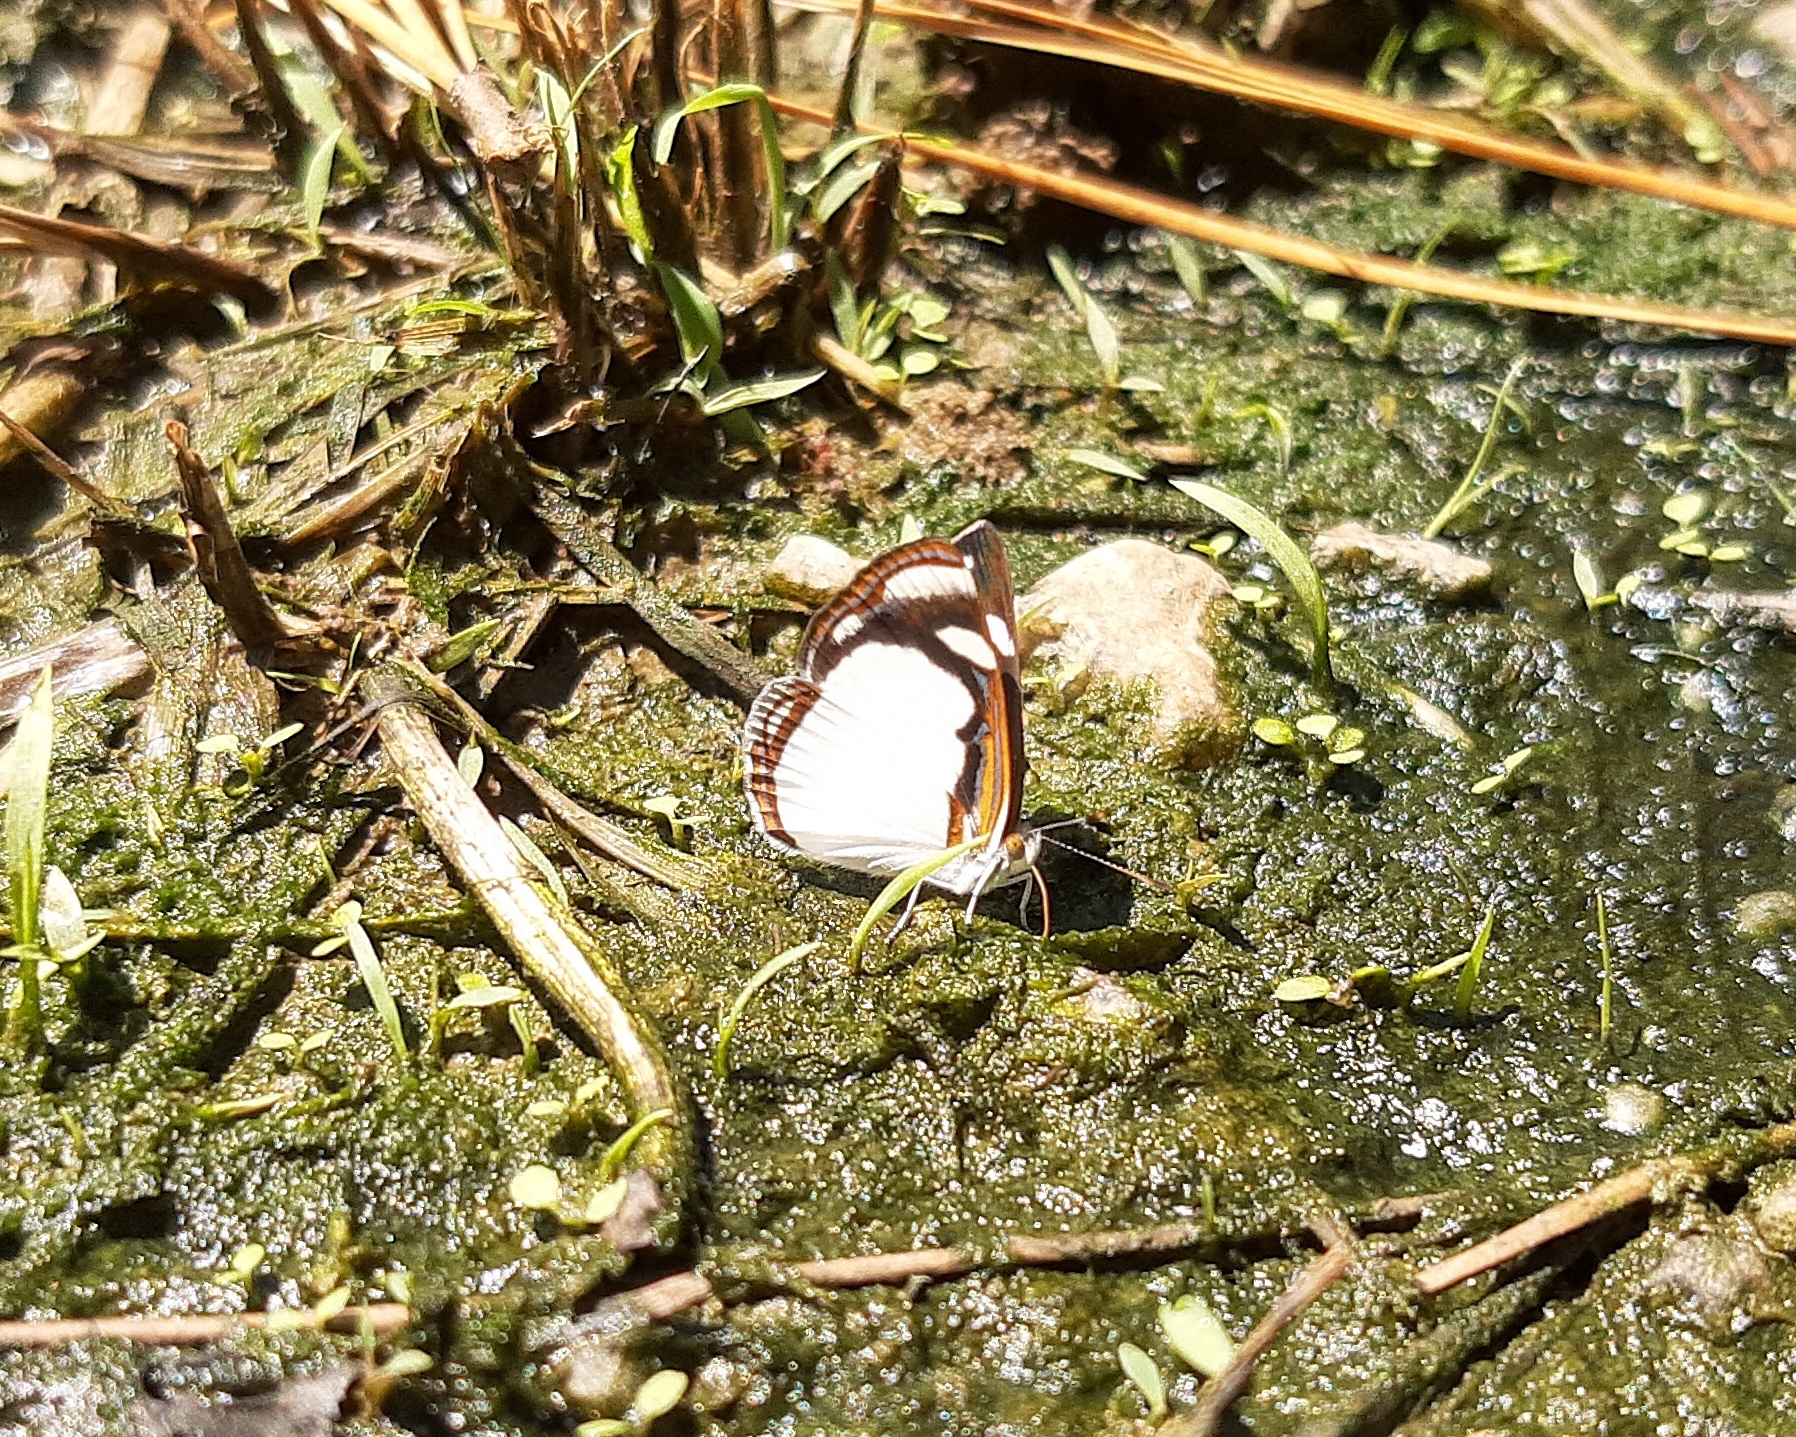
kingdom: Animalia
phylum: Arthropoda
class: Insecta
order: Lepidoptera
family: Nymphalidae
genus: Dynamine
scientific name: Dynamine agacles
